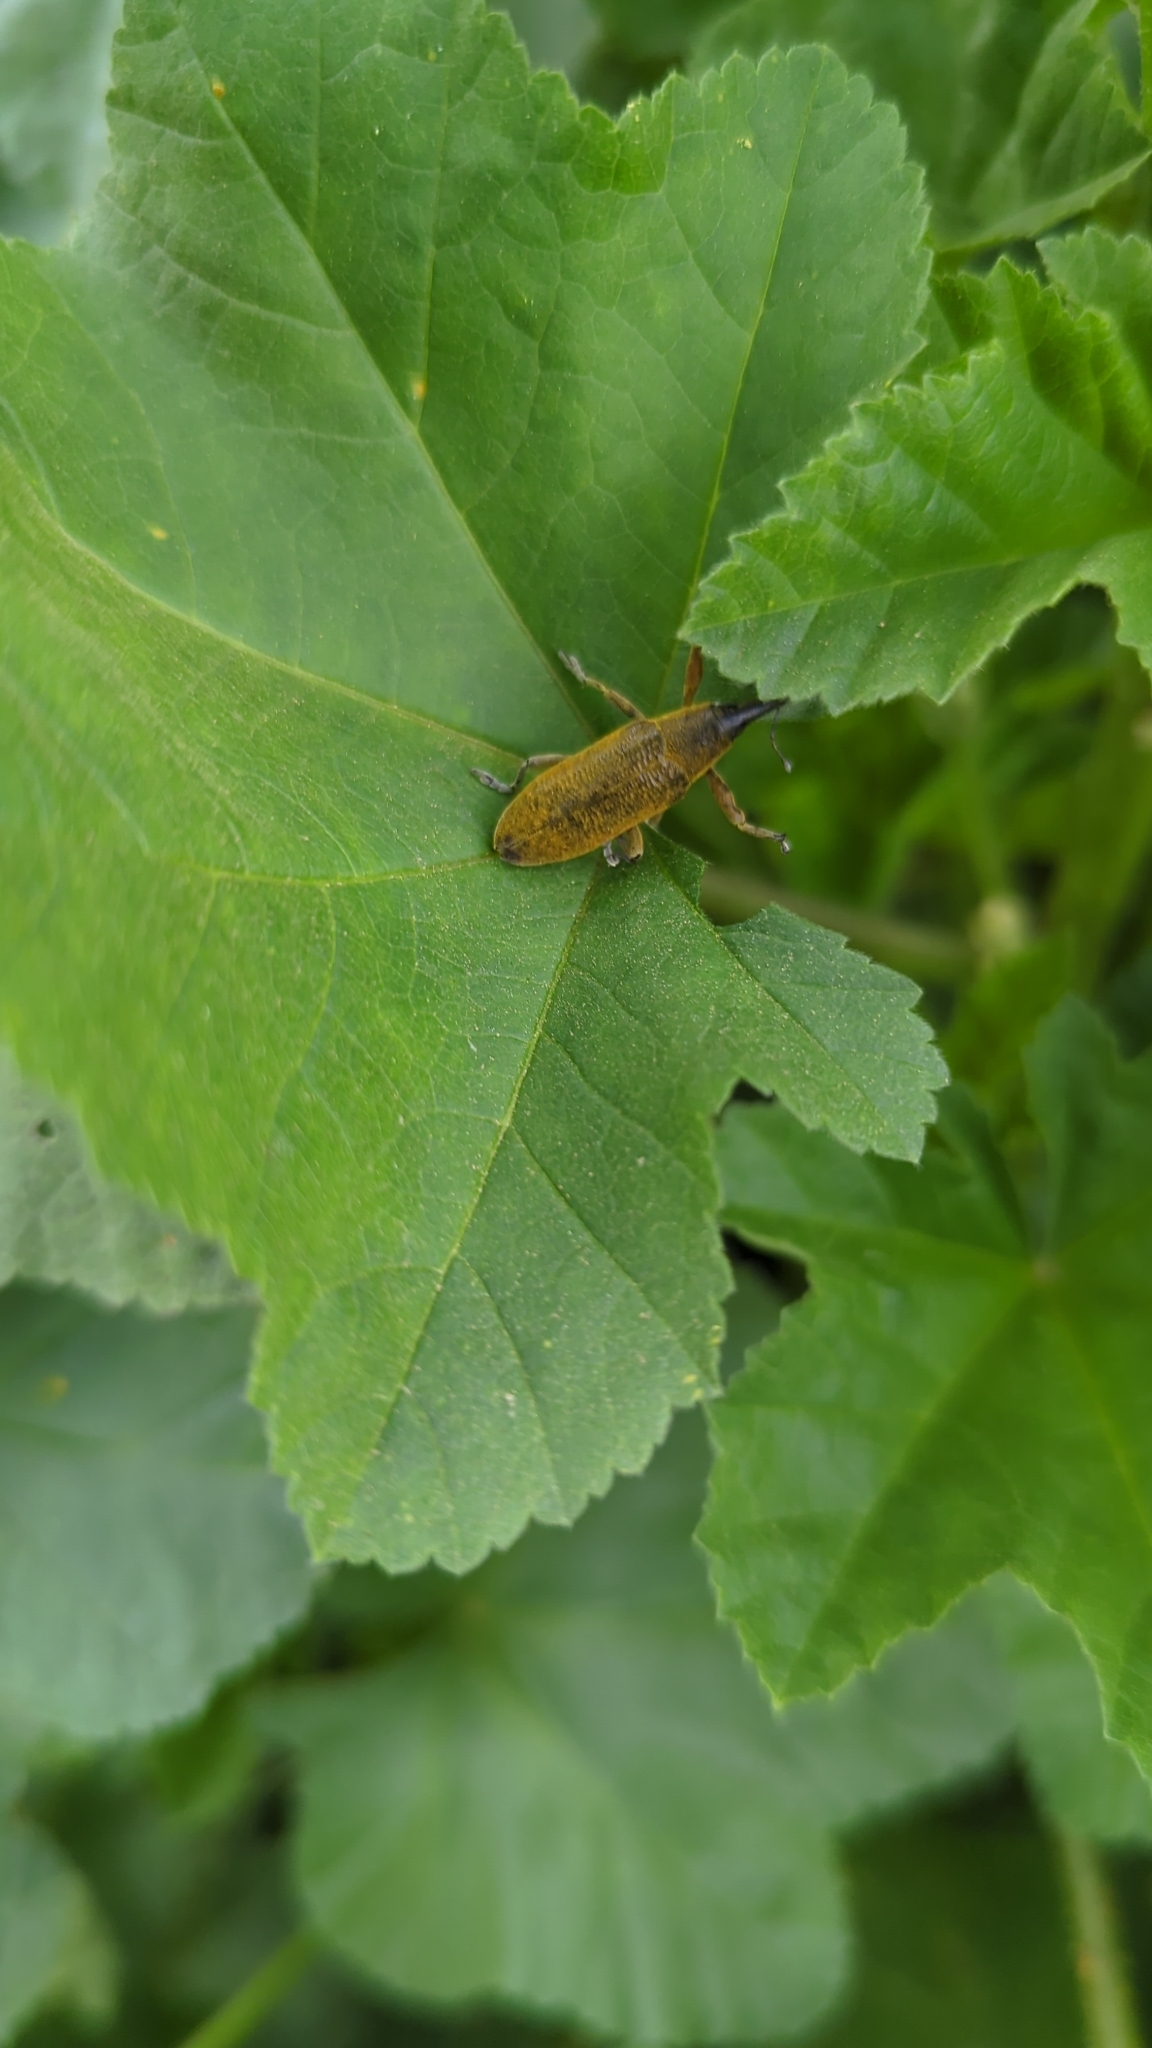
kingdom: Animalia
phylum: Arthropoda
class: Insecta
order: Coleoptera
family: Curculionidae
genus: Lixus
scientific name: Lixus pulverulentus
